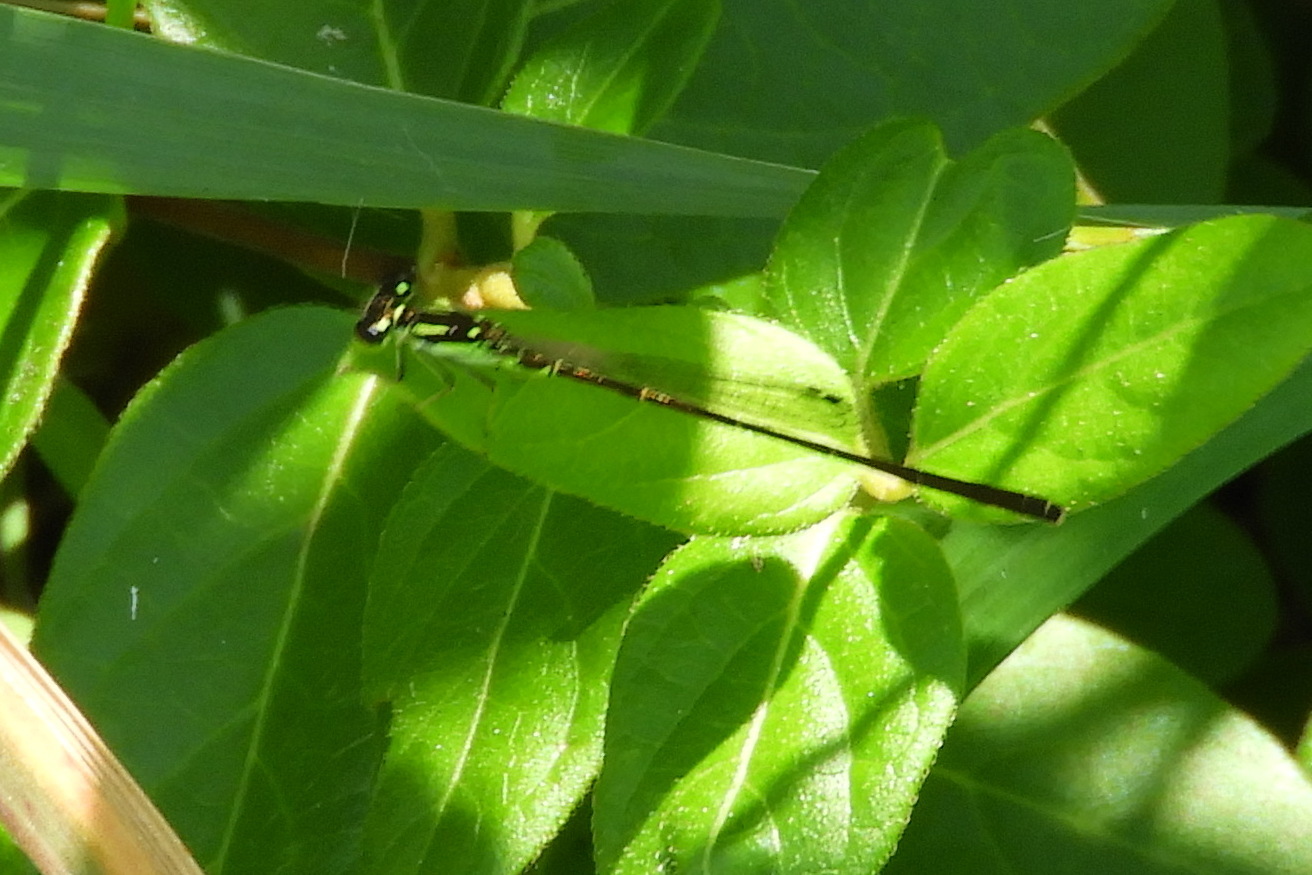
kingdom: Animalia
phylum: Arthropoda
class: Insecta
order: Odonata
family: Coenagrionidae
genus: Ischnura
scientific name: Ischnura posita
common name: Fragile forktail
